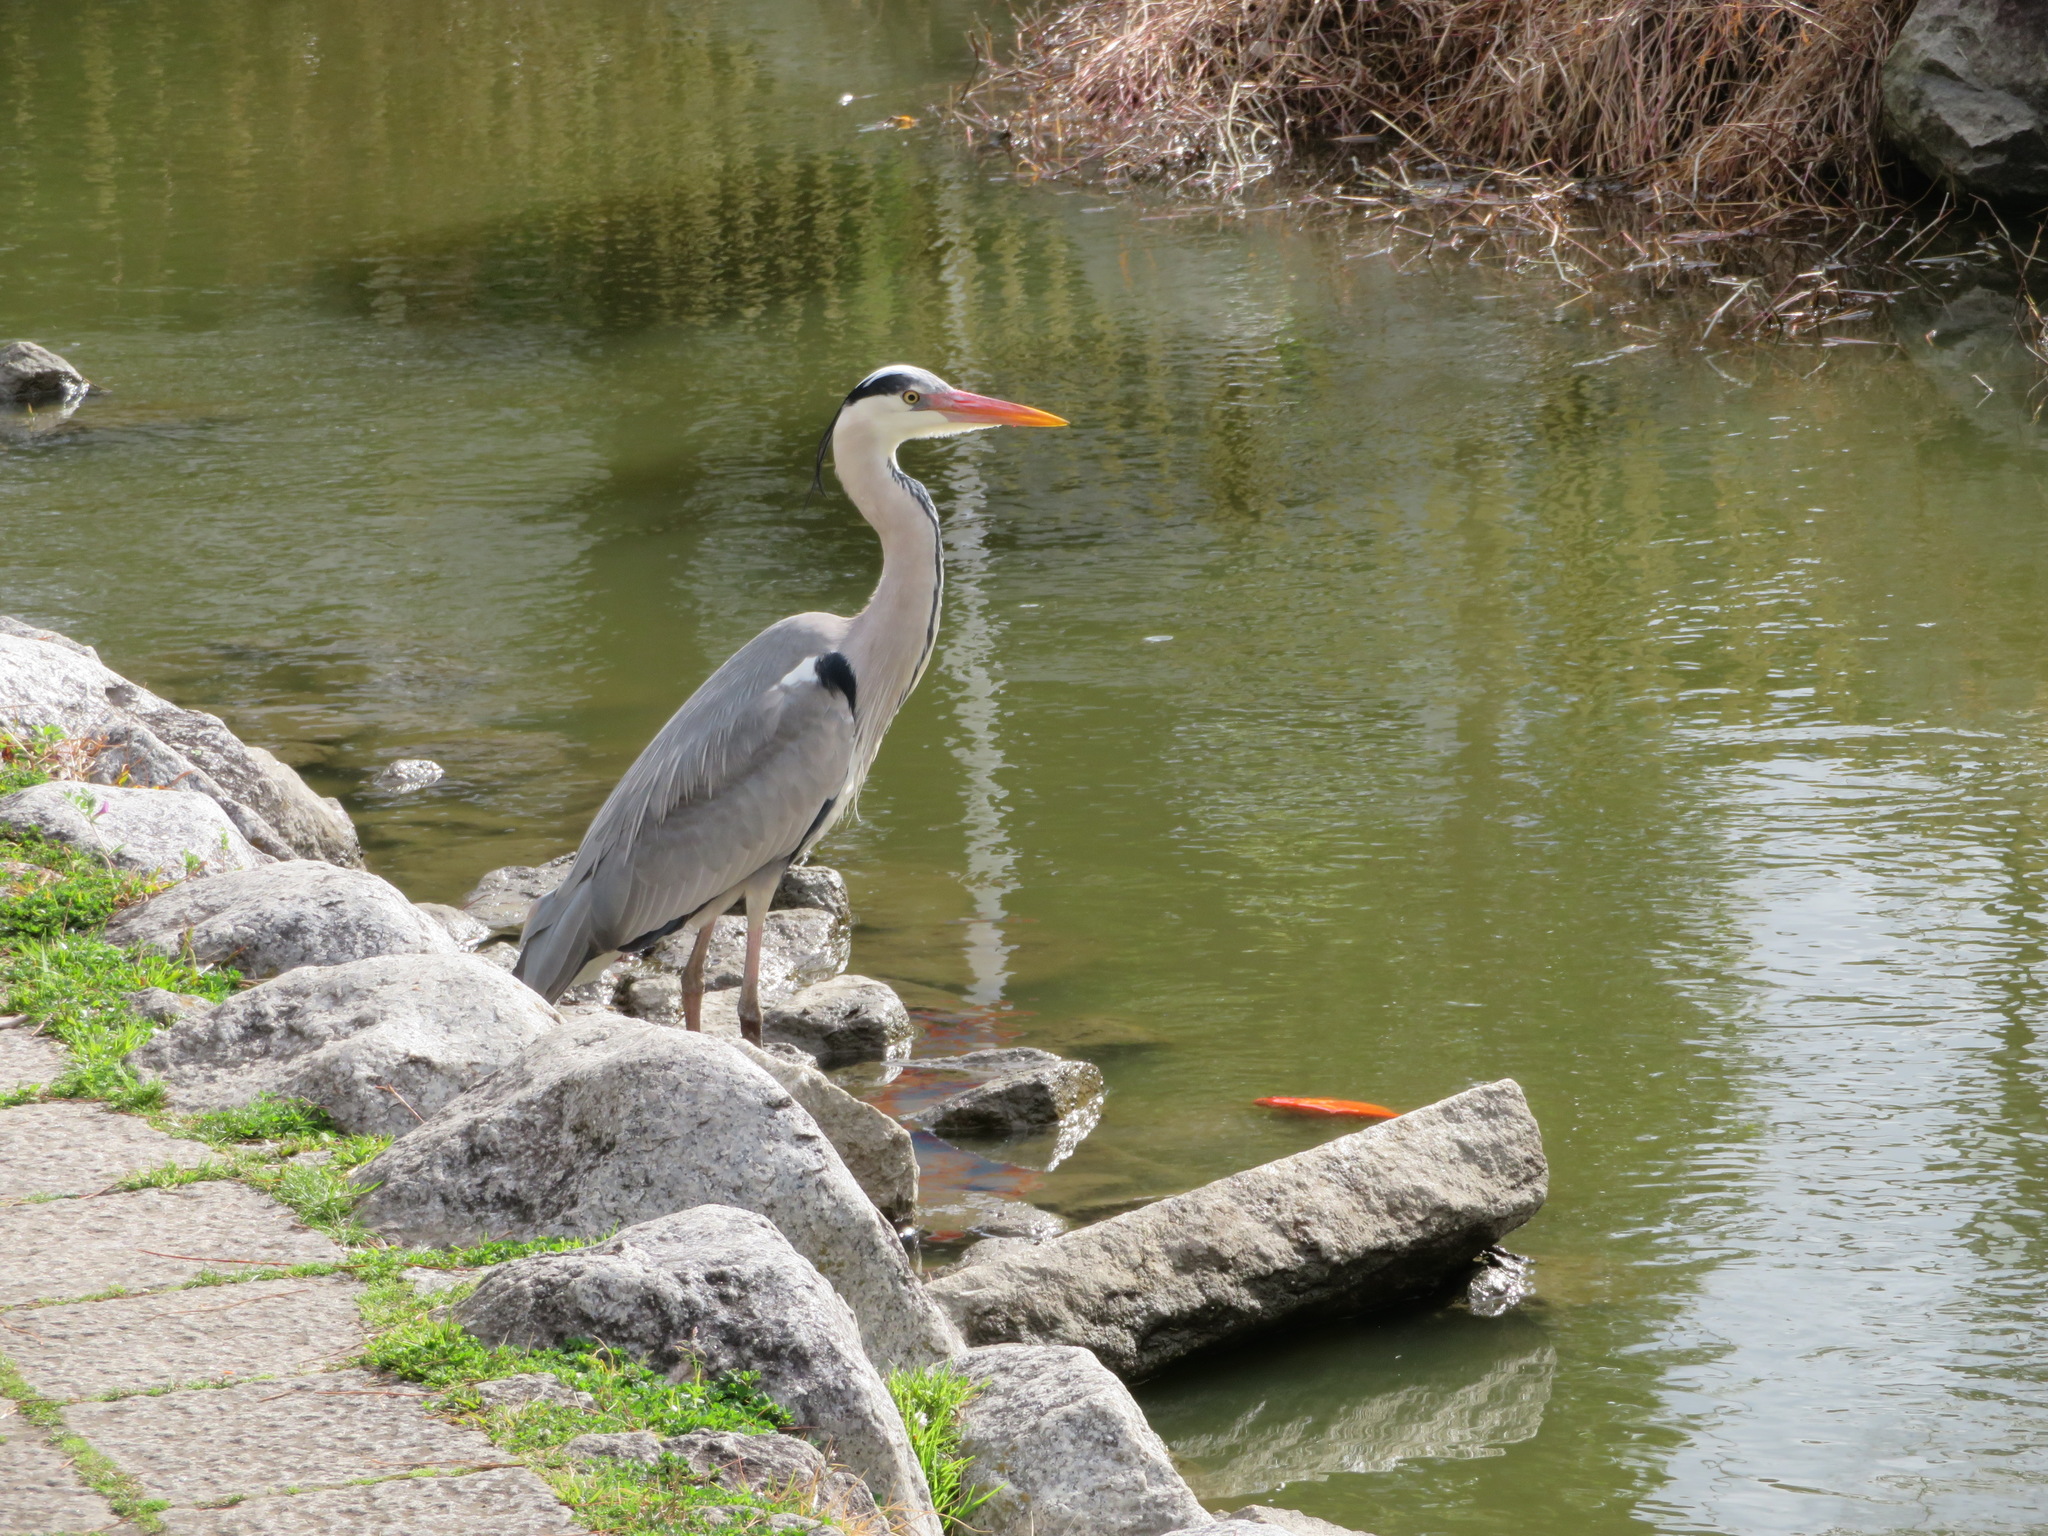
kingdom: Animalia
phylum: Chordata
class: Aves
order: Pelecaniformes
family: Ardeidae
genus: Ardea
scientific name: Ardea cinerea
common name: Grey heron
